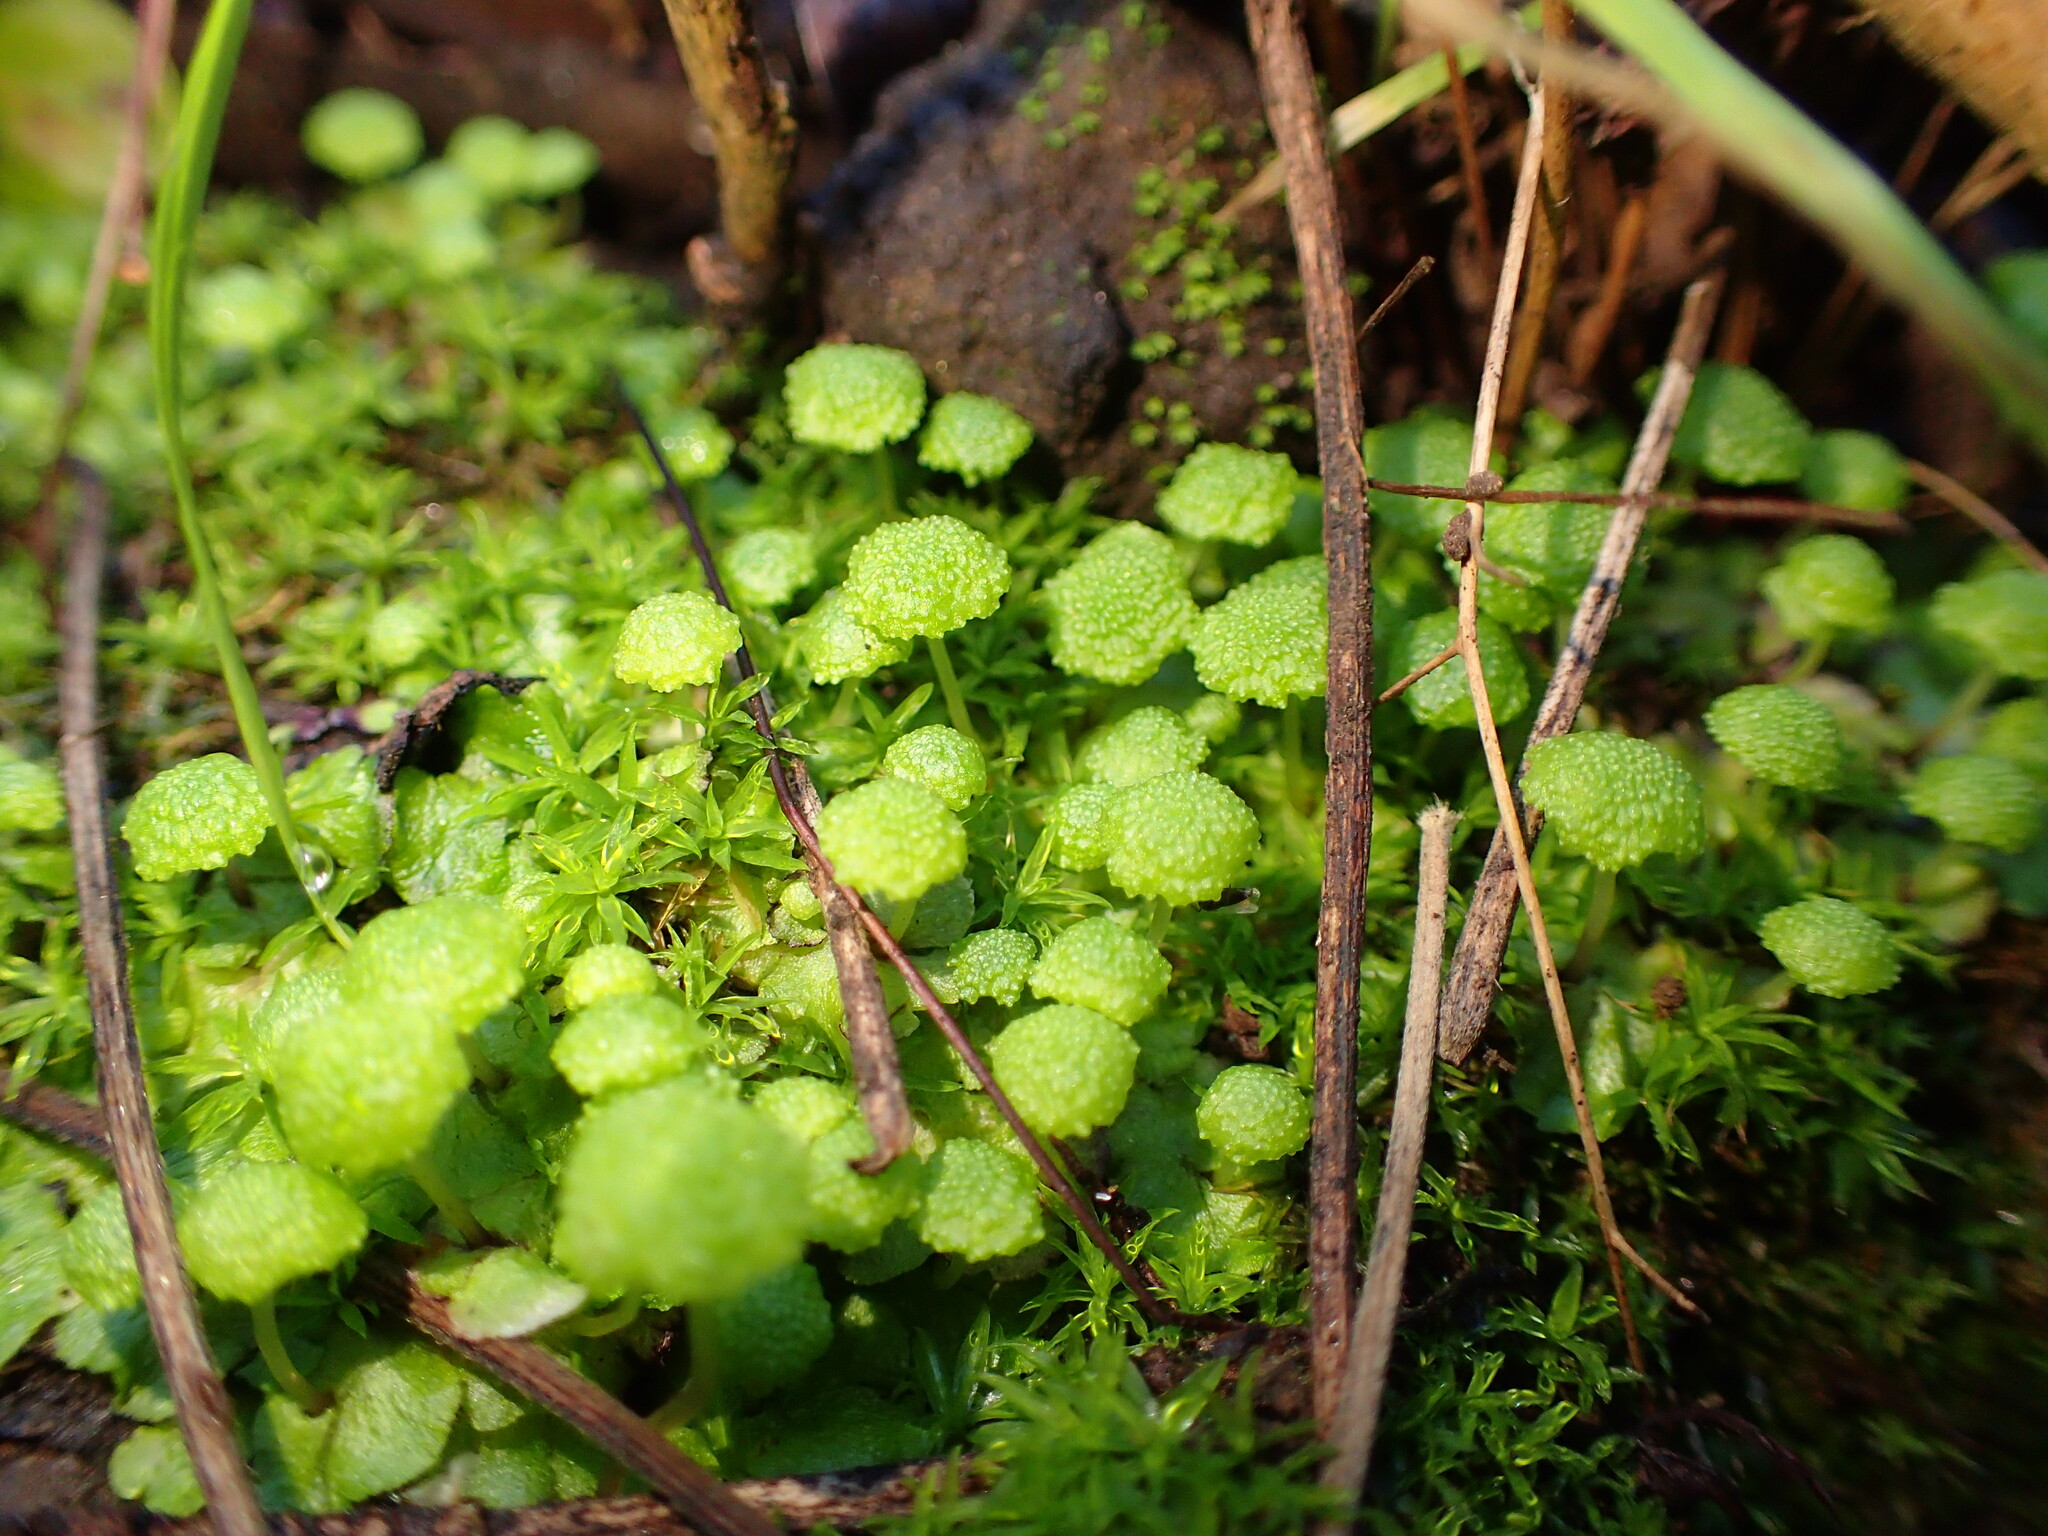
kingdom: Plantae
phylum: Marchantiophyta
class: Marchantiopsida
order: Marchantiales
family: Aytoniaceae
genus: Cryptomitrium
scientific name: Cryptomitrium tenerum
